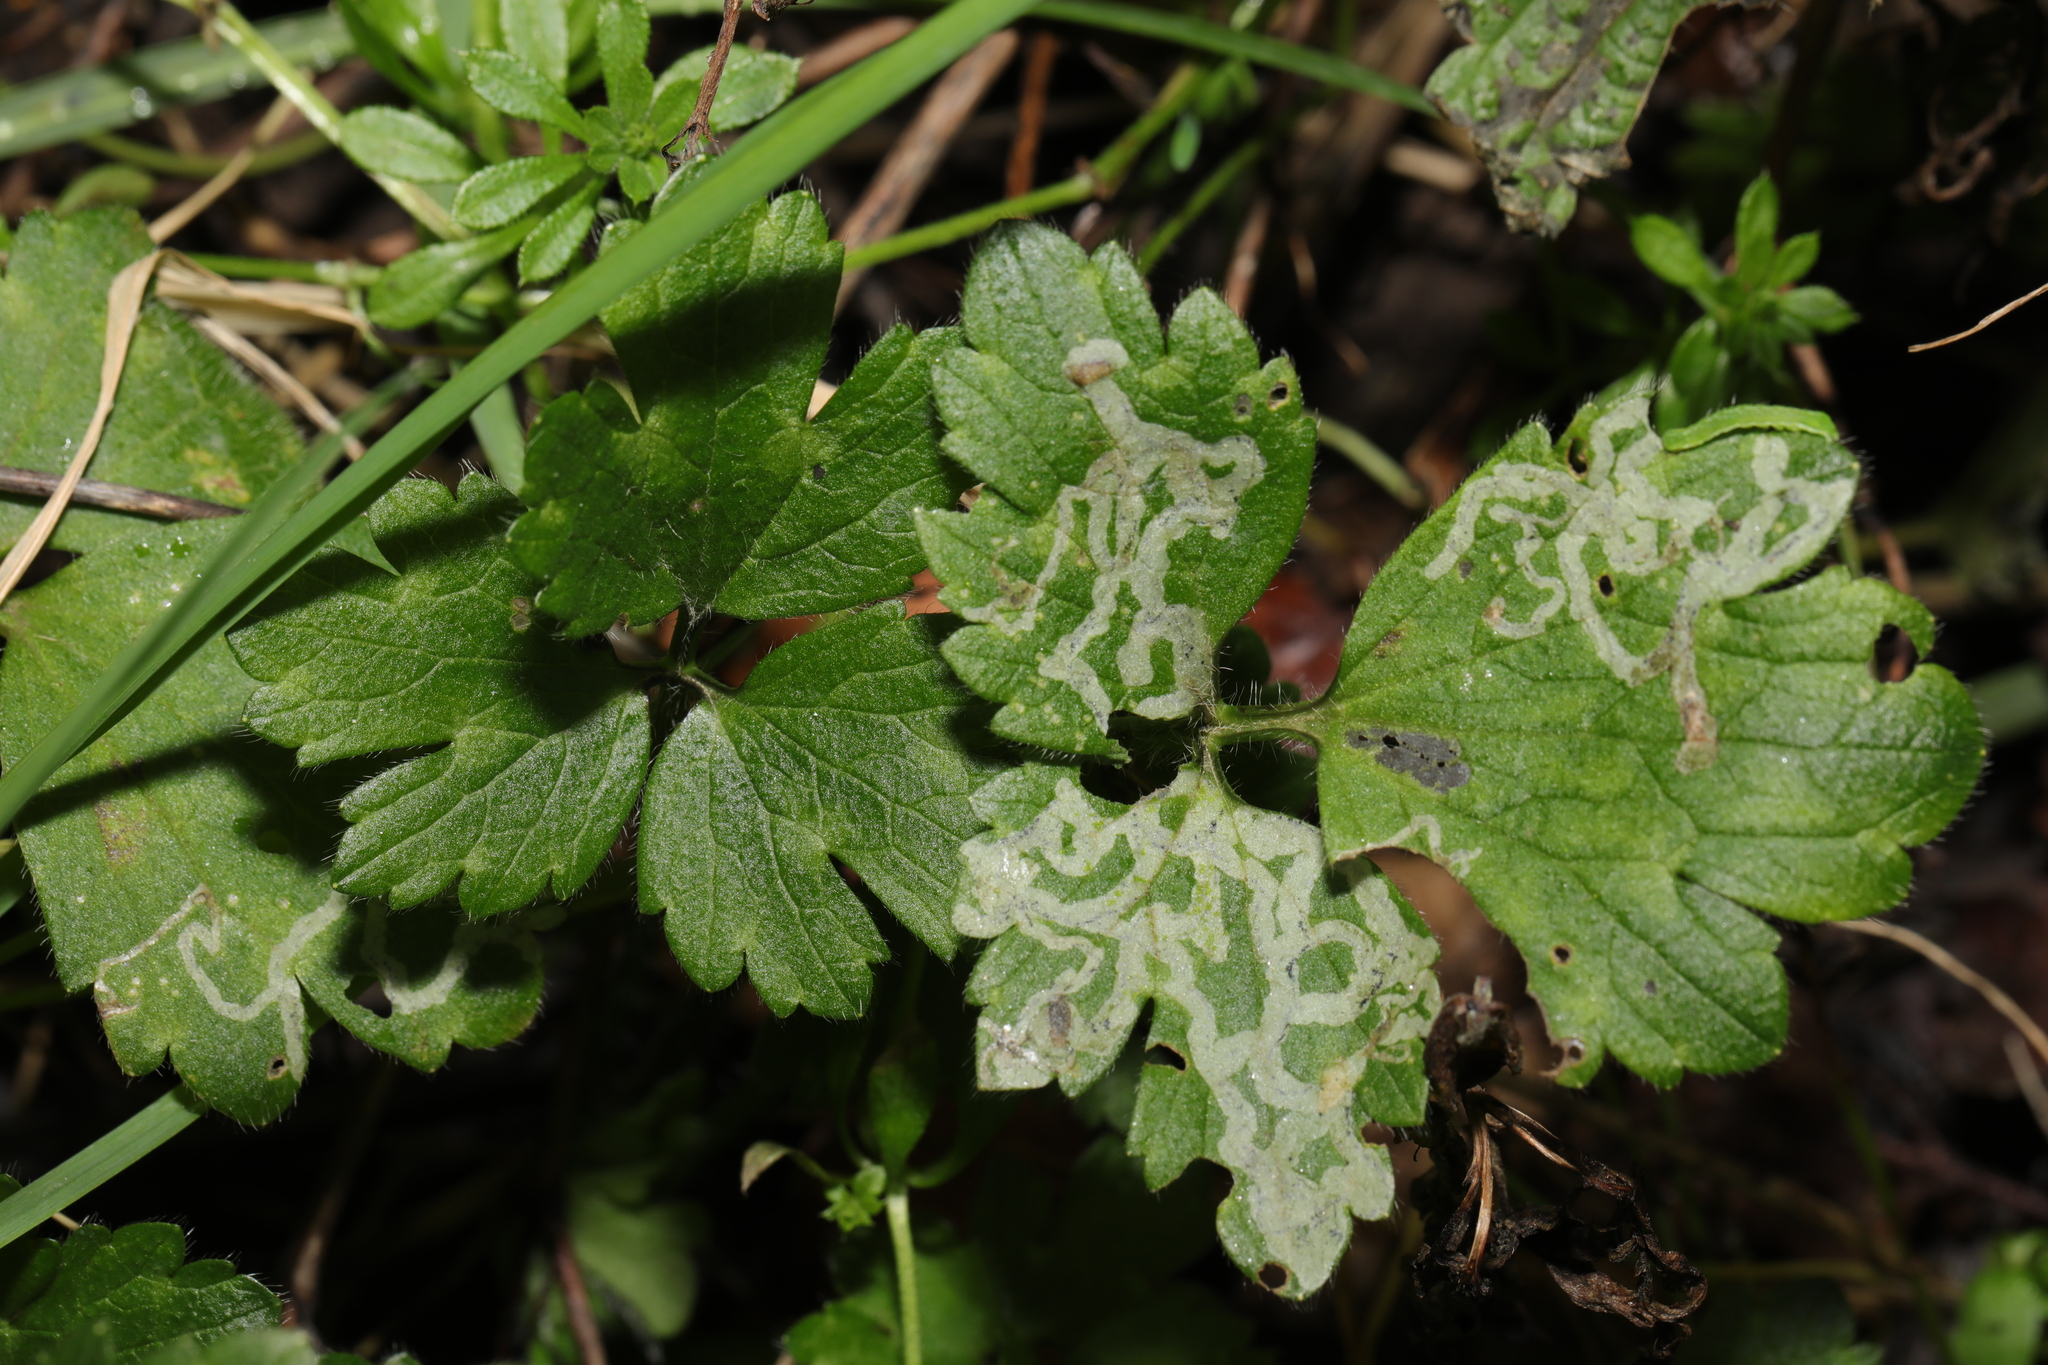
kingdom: Plantae
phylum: Tracheophyta
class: Magnoliopsida
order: Ranunculales
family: Ranunculaceae
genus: Ranunculus
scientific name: Ranunculus repens
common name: Creeping buttercup
